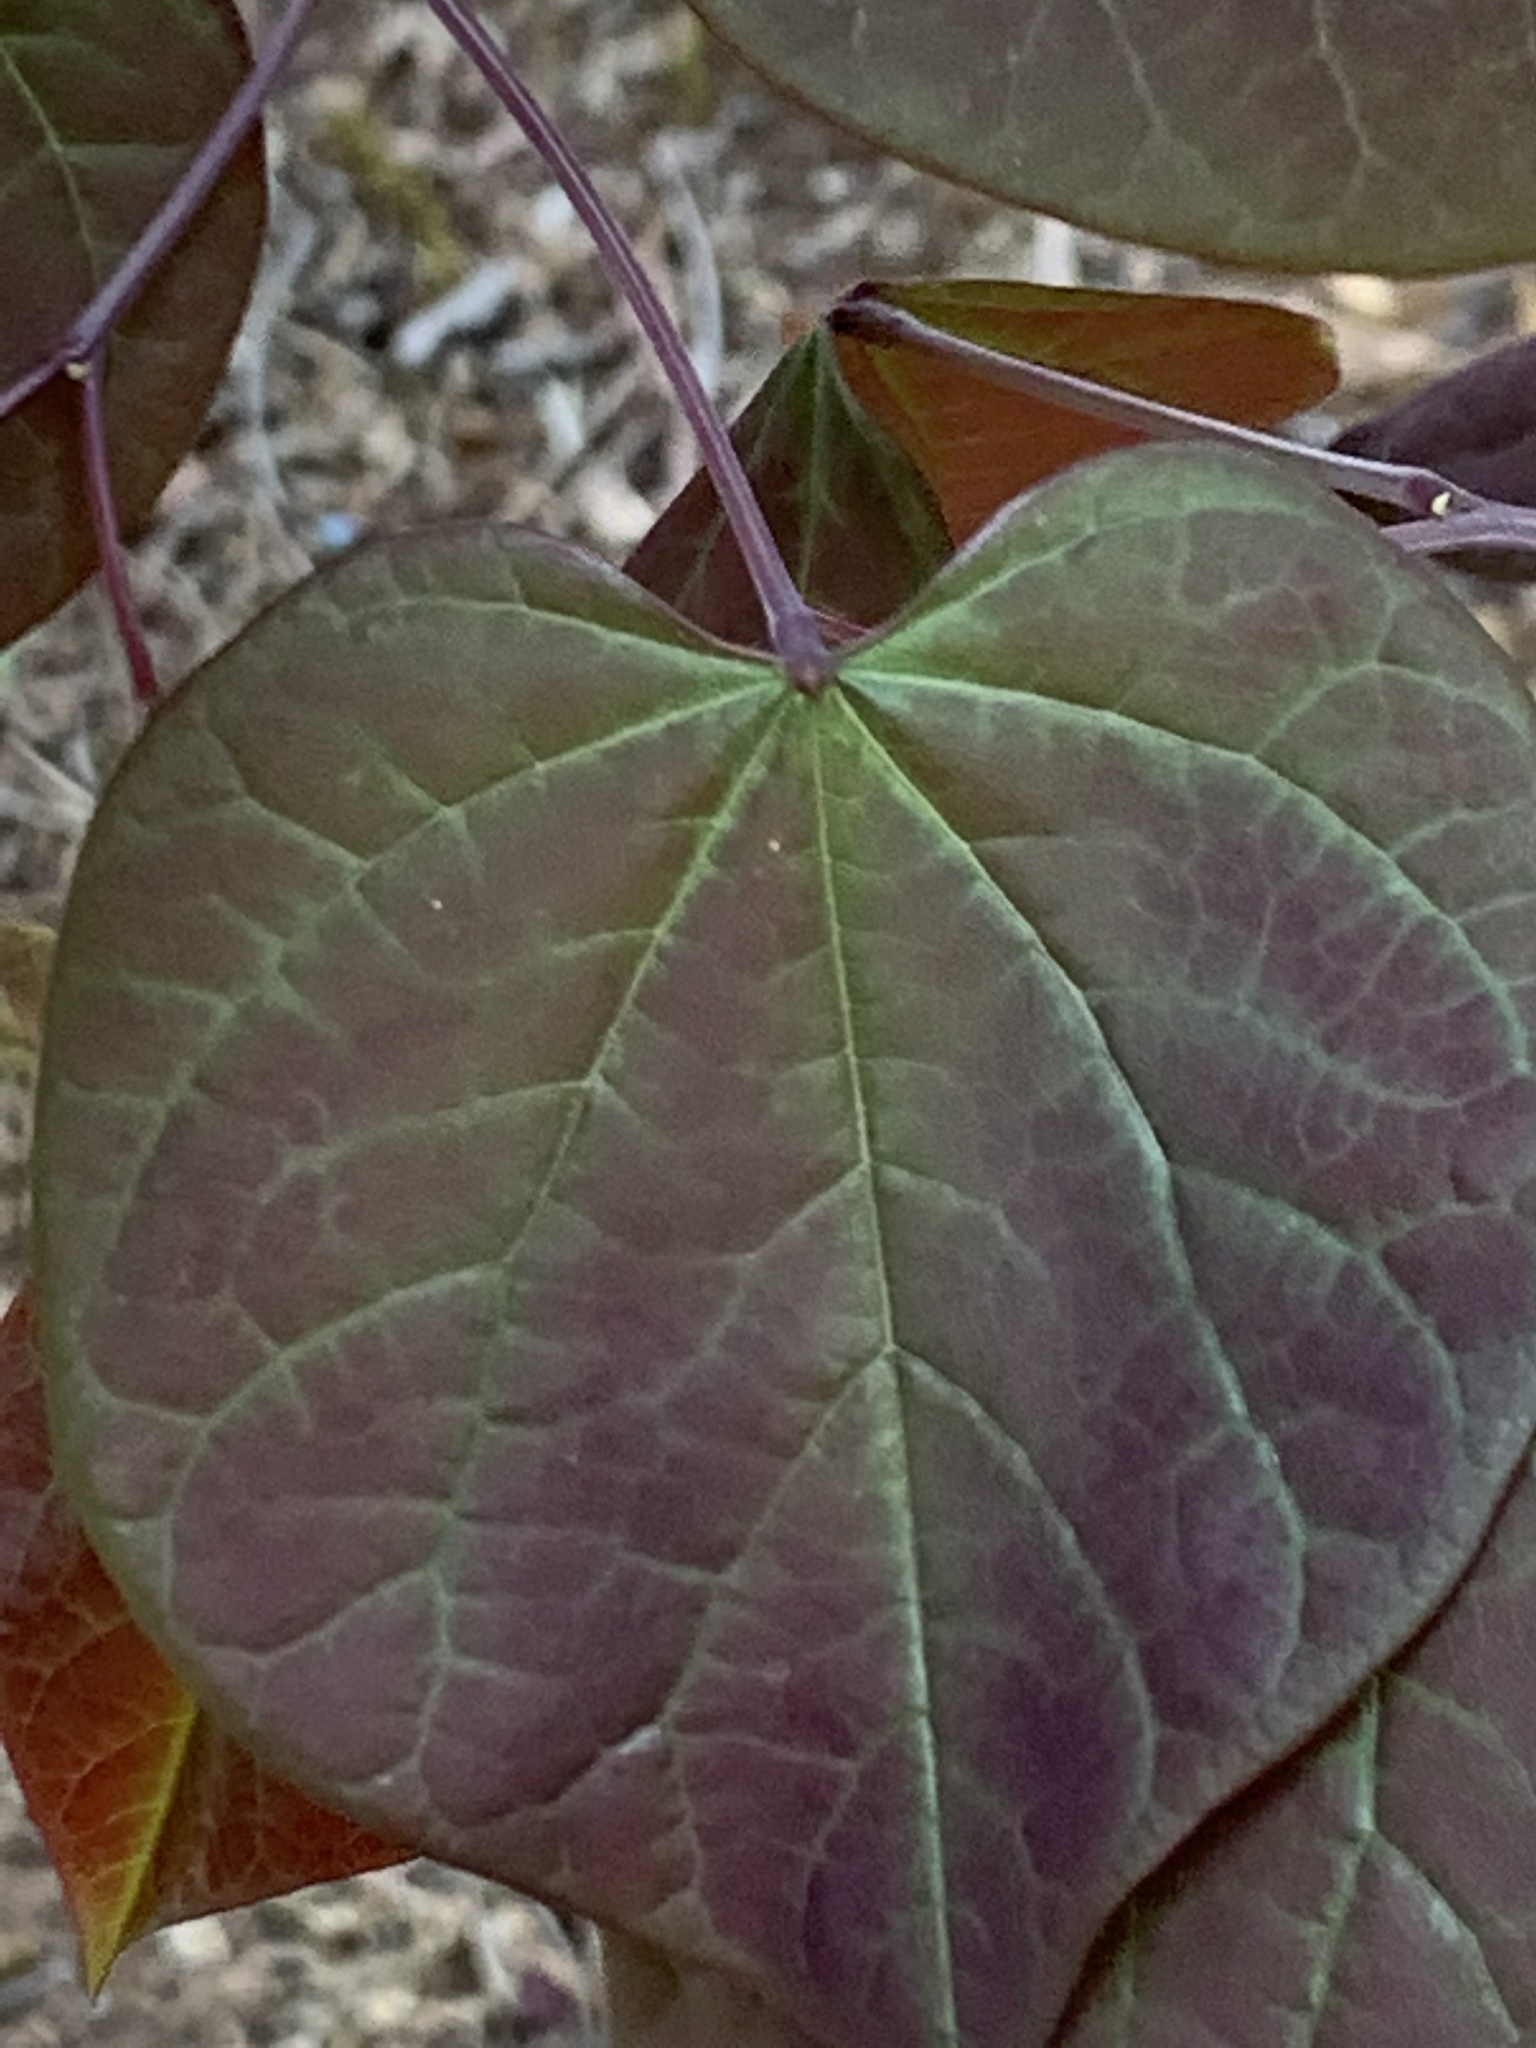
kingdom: Plantae
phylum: Tracheophyta
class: Magnoliopsida
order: Fabales
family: Fabaceae
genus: Cercis
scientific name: Cercis canadensis
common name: Eastern redbud
